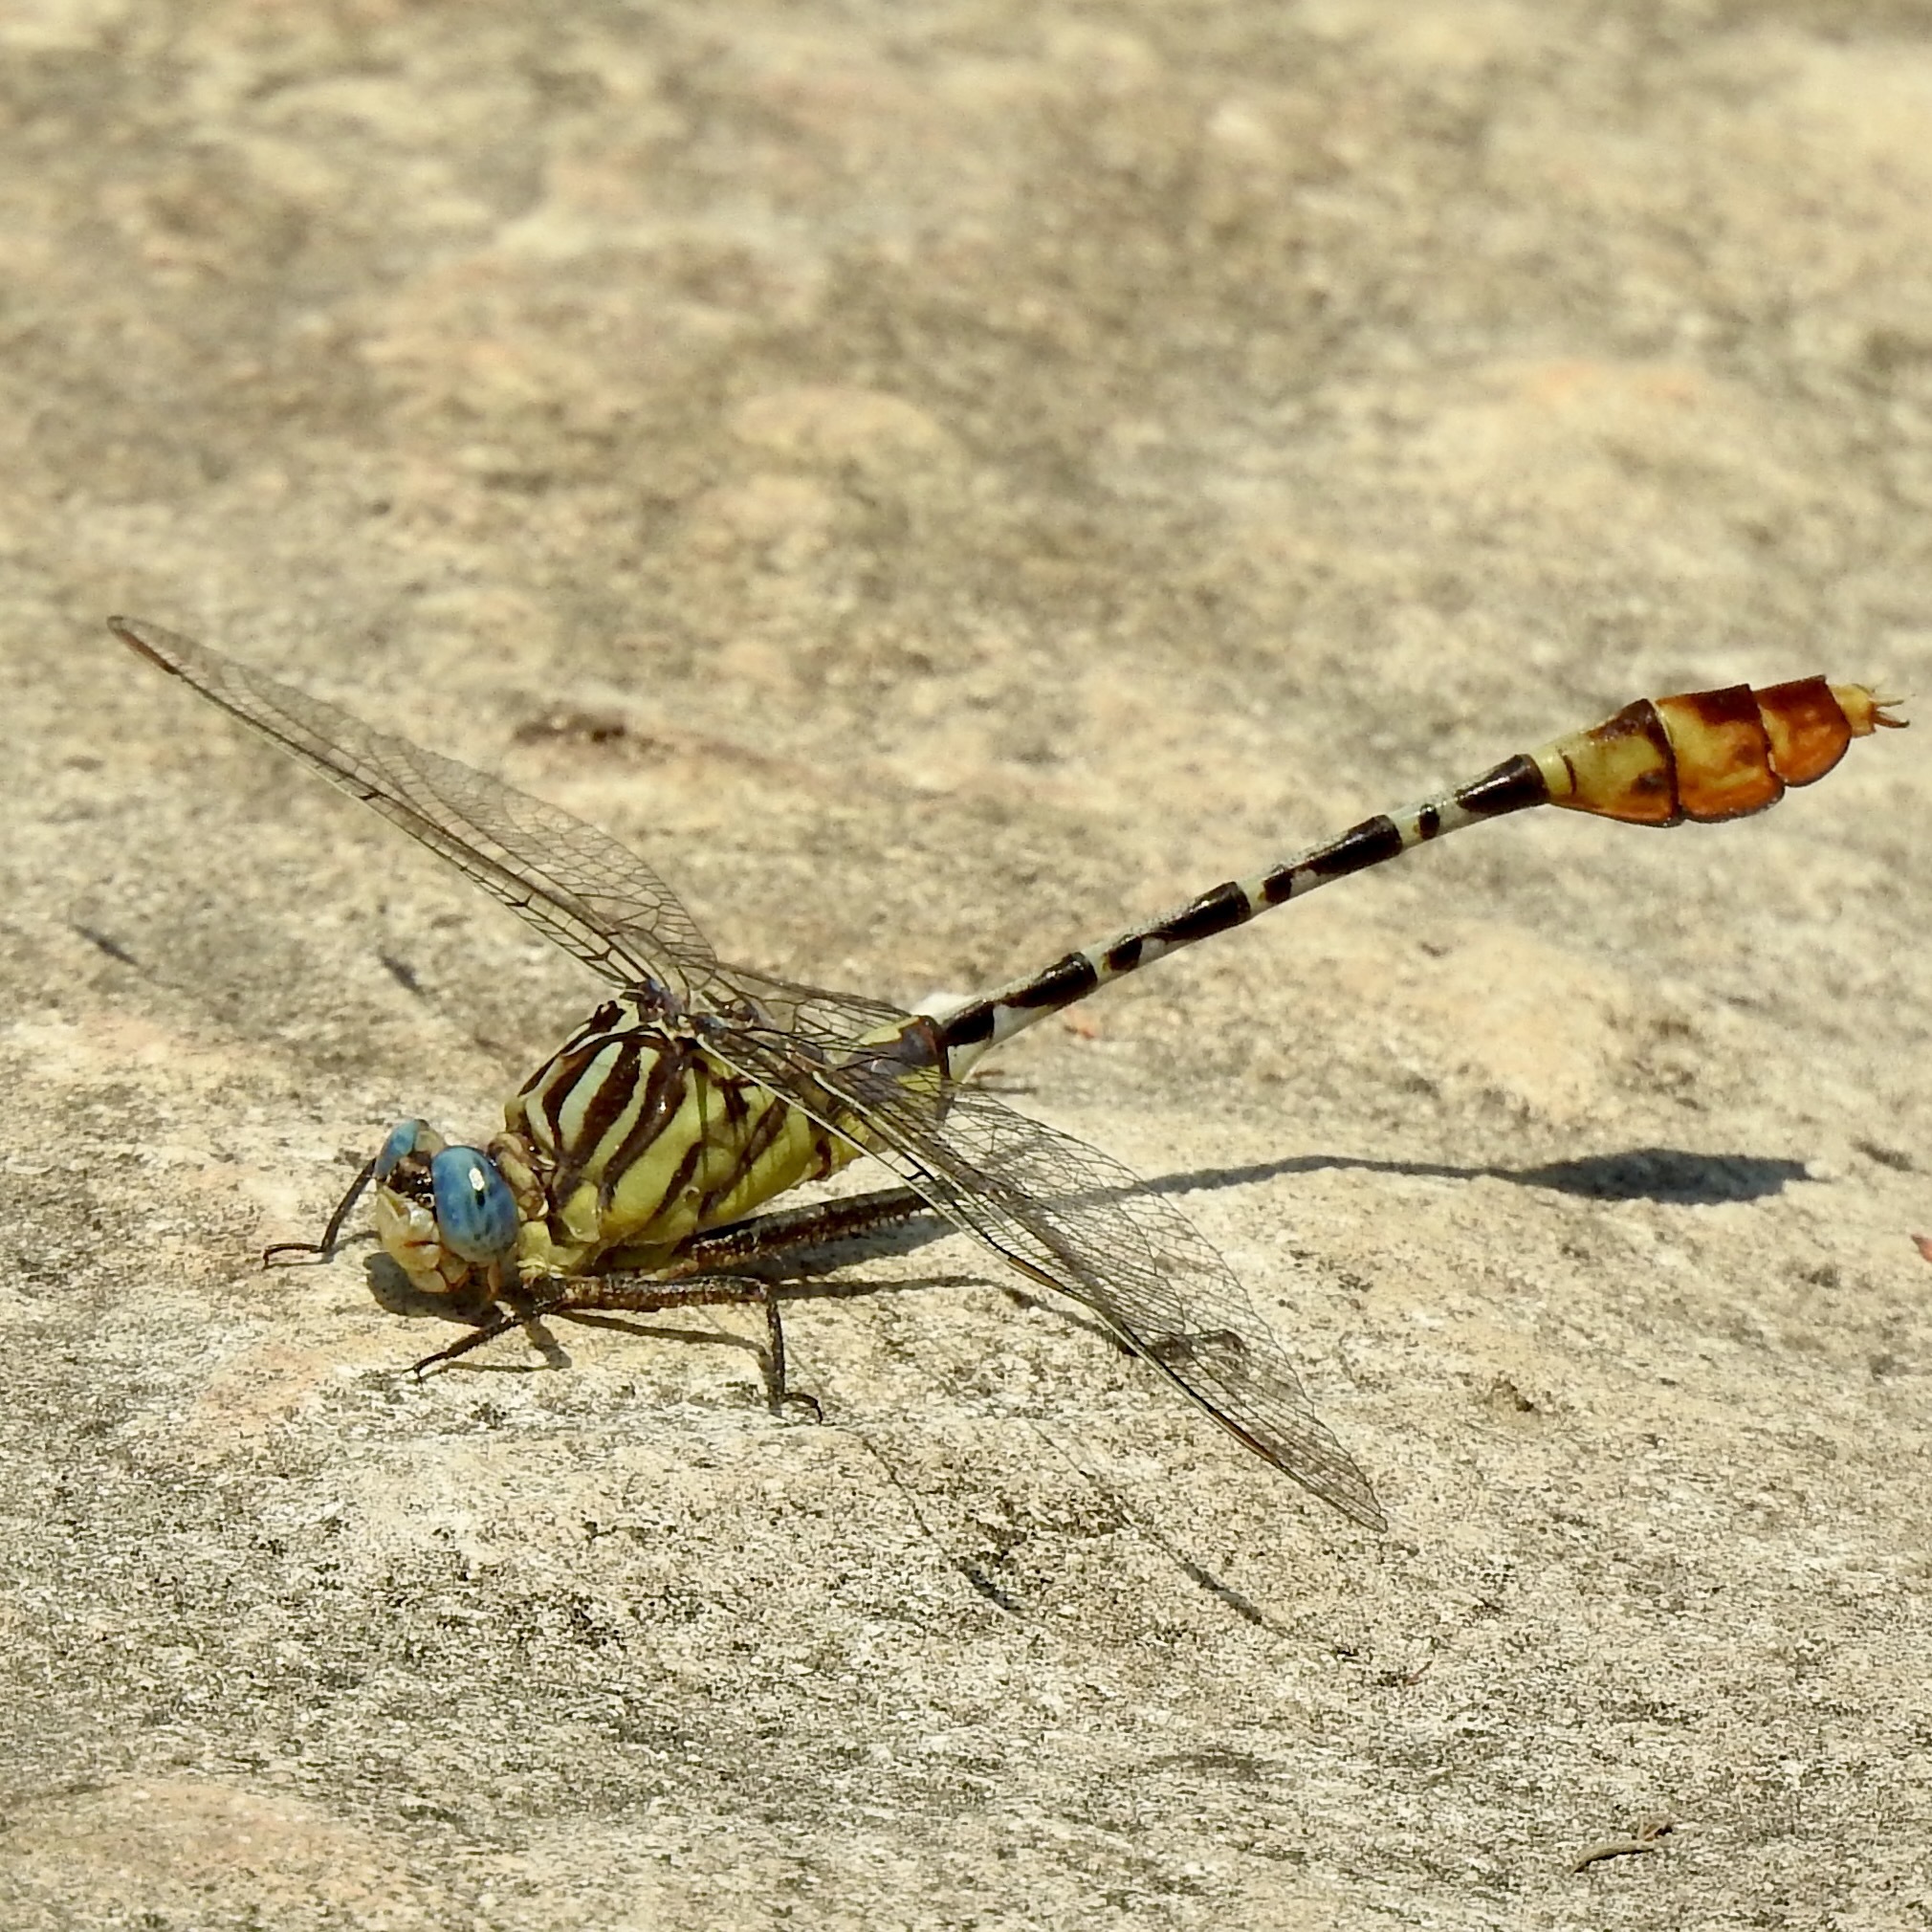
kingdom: Animalia
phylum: Arthropoda
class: Insecta
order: Odonata
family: Gomphidae
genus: Dromogomphus
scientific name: Dromogomphus spoliatus
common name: Flag-tailed spinyleg
